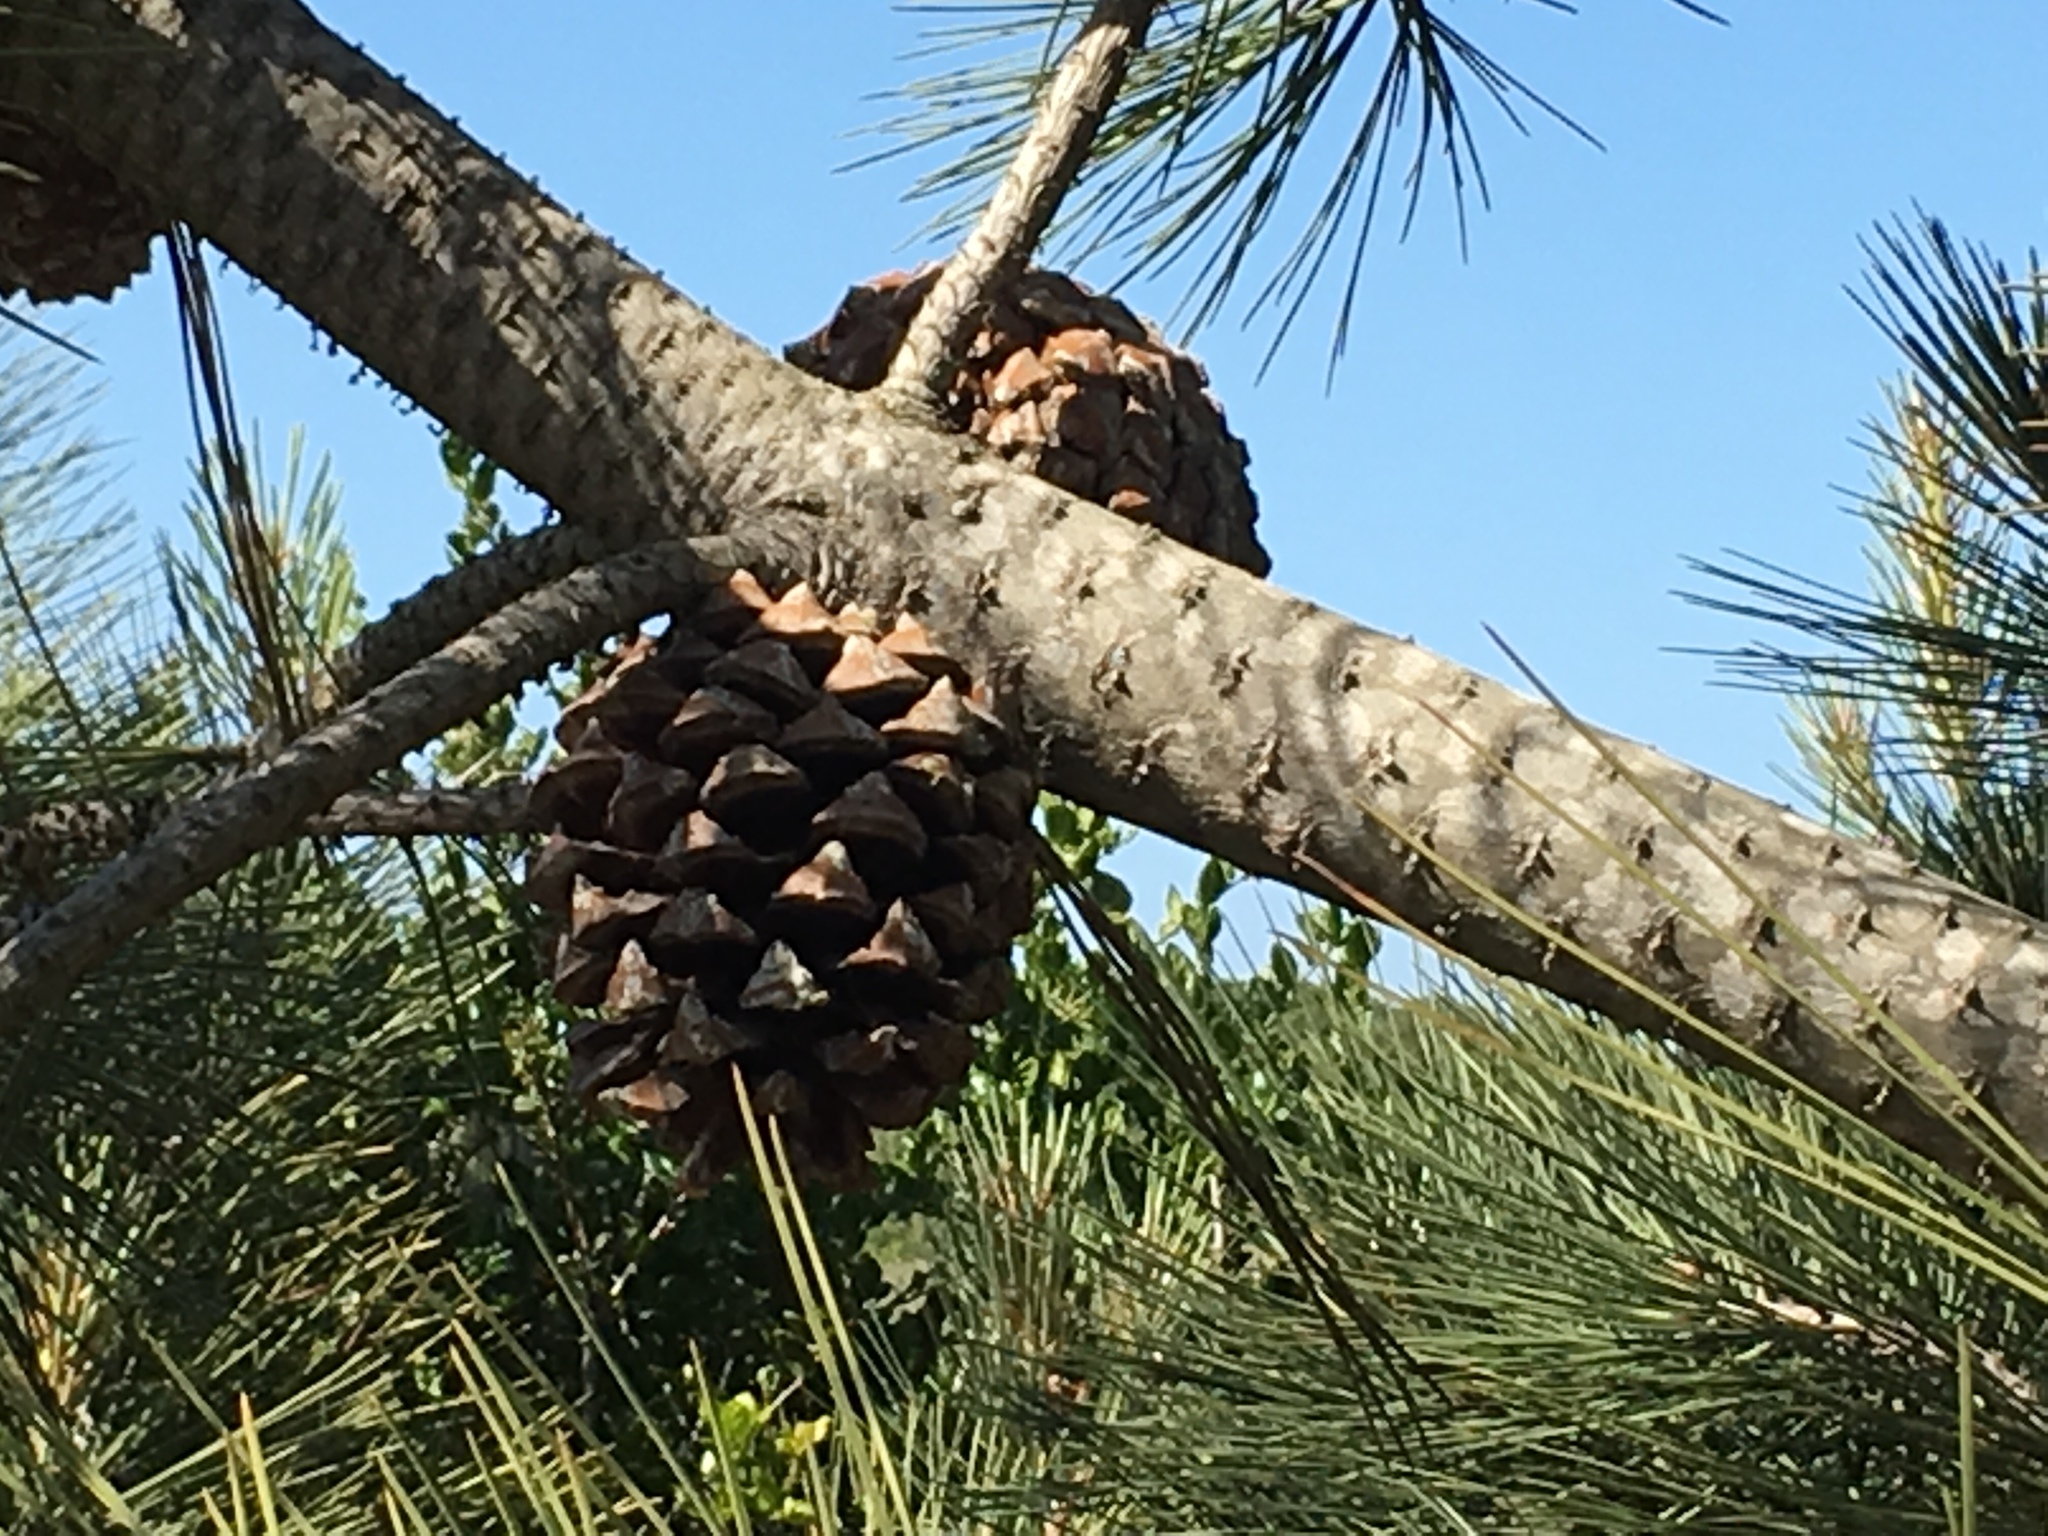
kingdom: Plantae
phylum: Tracheophyta
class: Pinopsida
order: Pinales
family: Pinaceae
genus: Pinus
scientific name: Pinus torreyana
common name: Torrey pine
